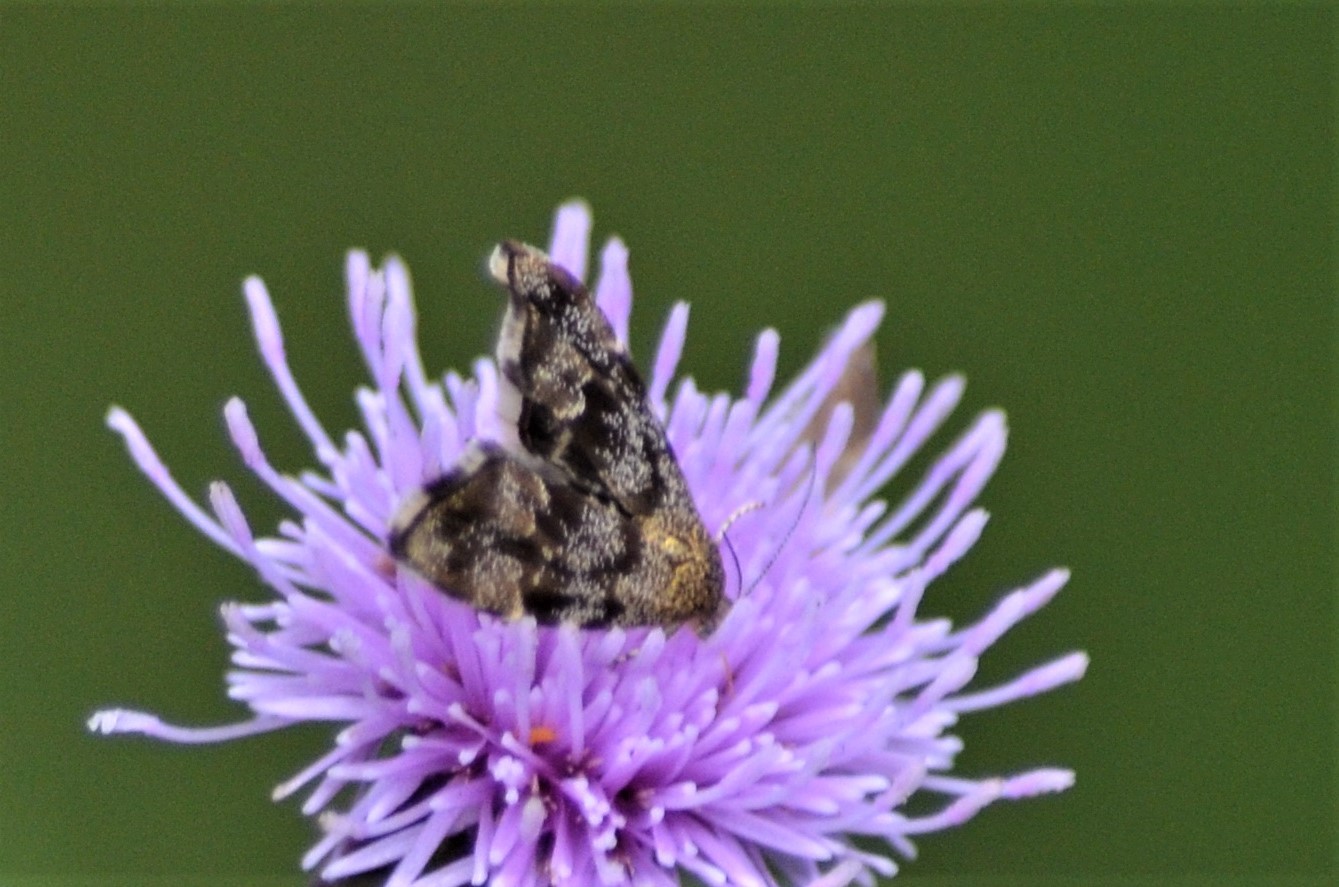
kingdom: Animalia
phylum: Arthropoda
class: Insecta
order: Lepidoptera
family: Choreutidae
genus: Anthophila
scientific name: Anthophila fabriciana
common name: Nettle-tap
